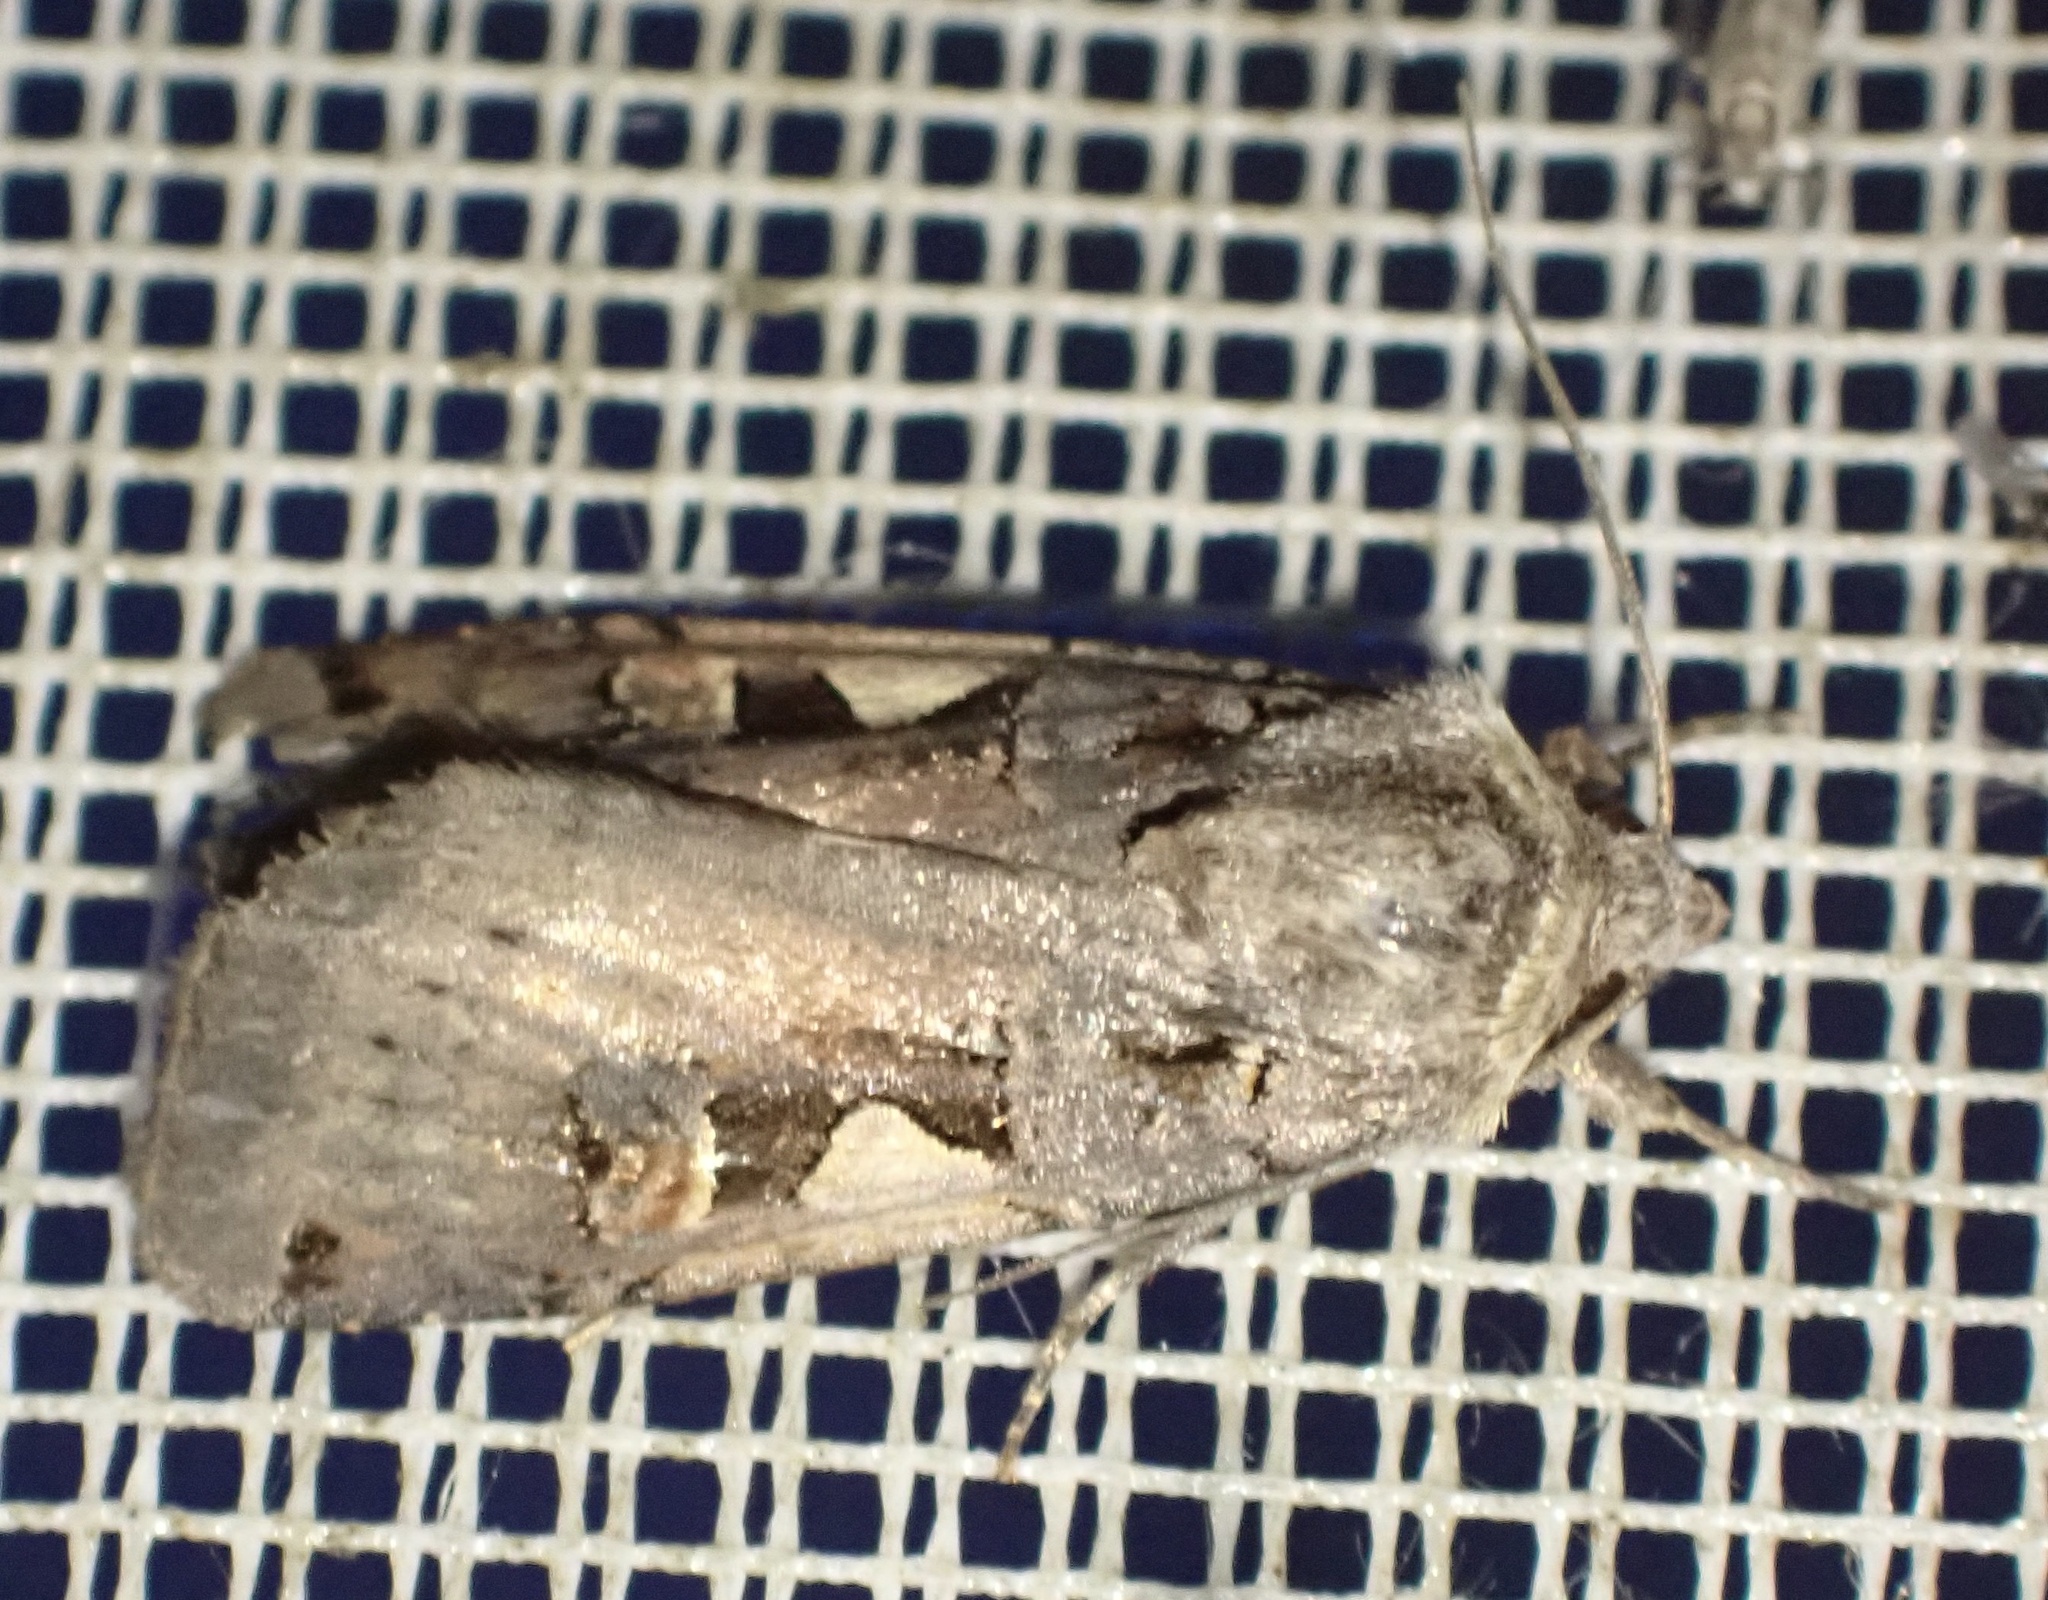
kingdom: Animalia
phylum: Arthropoda
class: Insecta
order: Lepidoptera
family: Noctuidae
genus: Xestia
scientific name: Xestia c-nigrum
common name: Setaceous hebrew character
